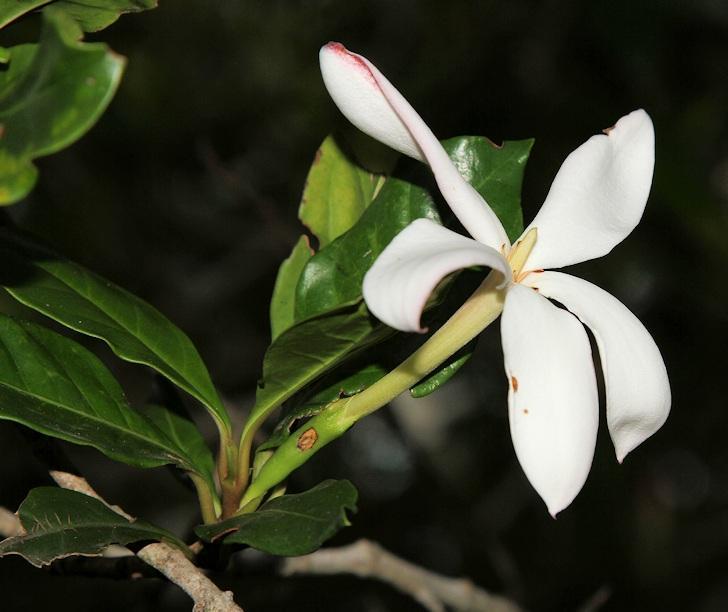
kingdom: Plantae
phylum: Tracheophyta
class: Magnoliopsida
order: Gentianales
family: Rubiaceae
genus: Hyperacanthus
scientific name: Hyperacanthus amoenus
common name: Spiny gardenia
